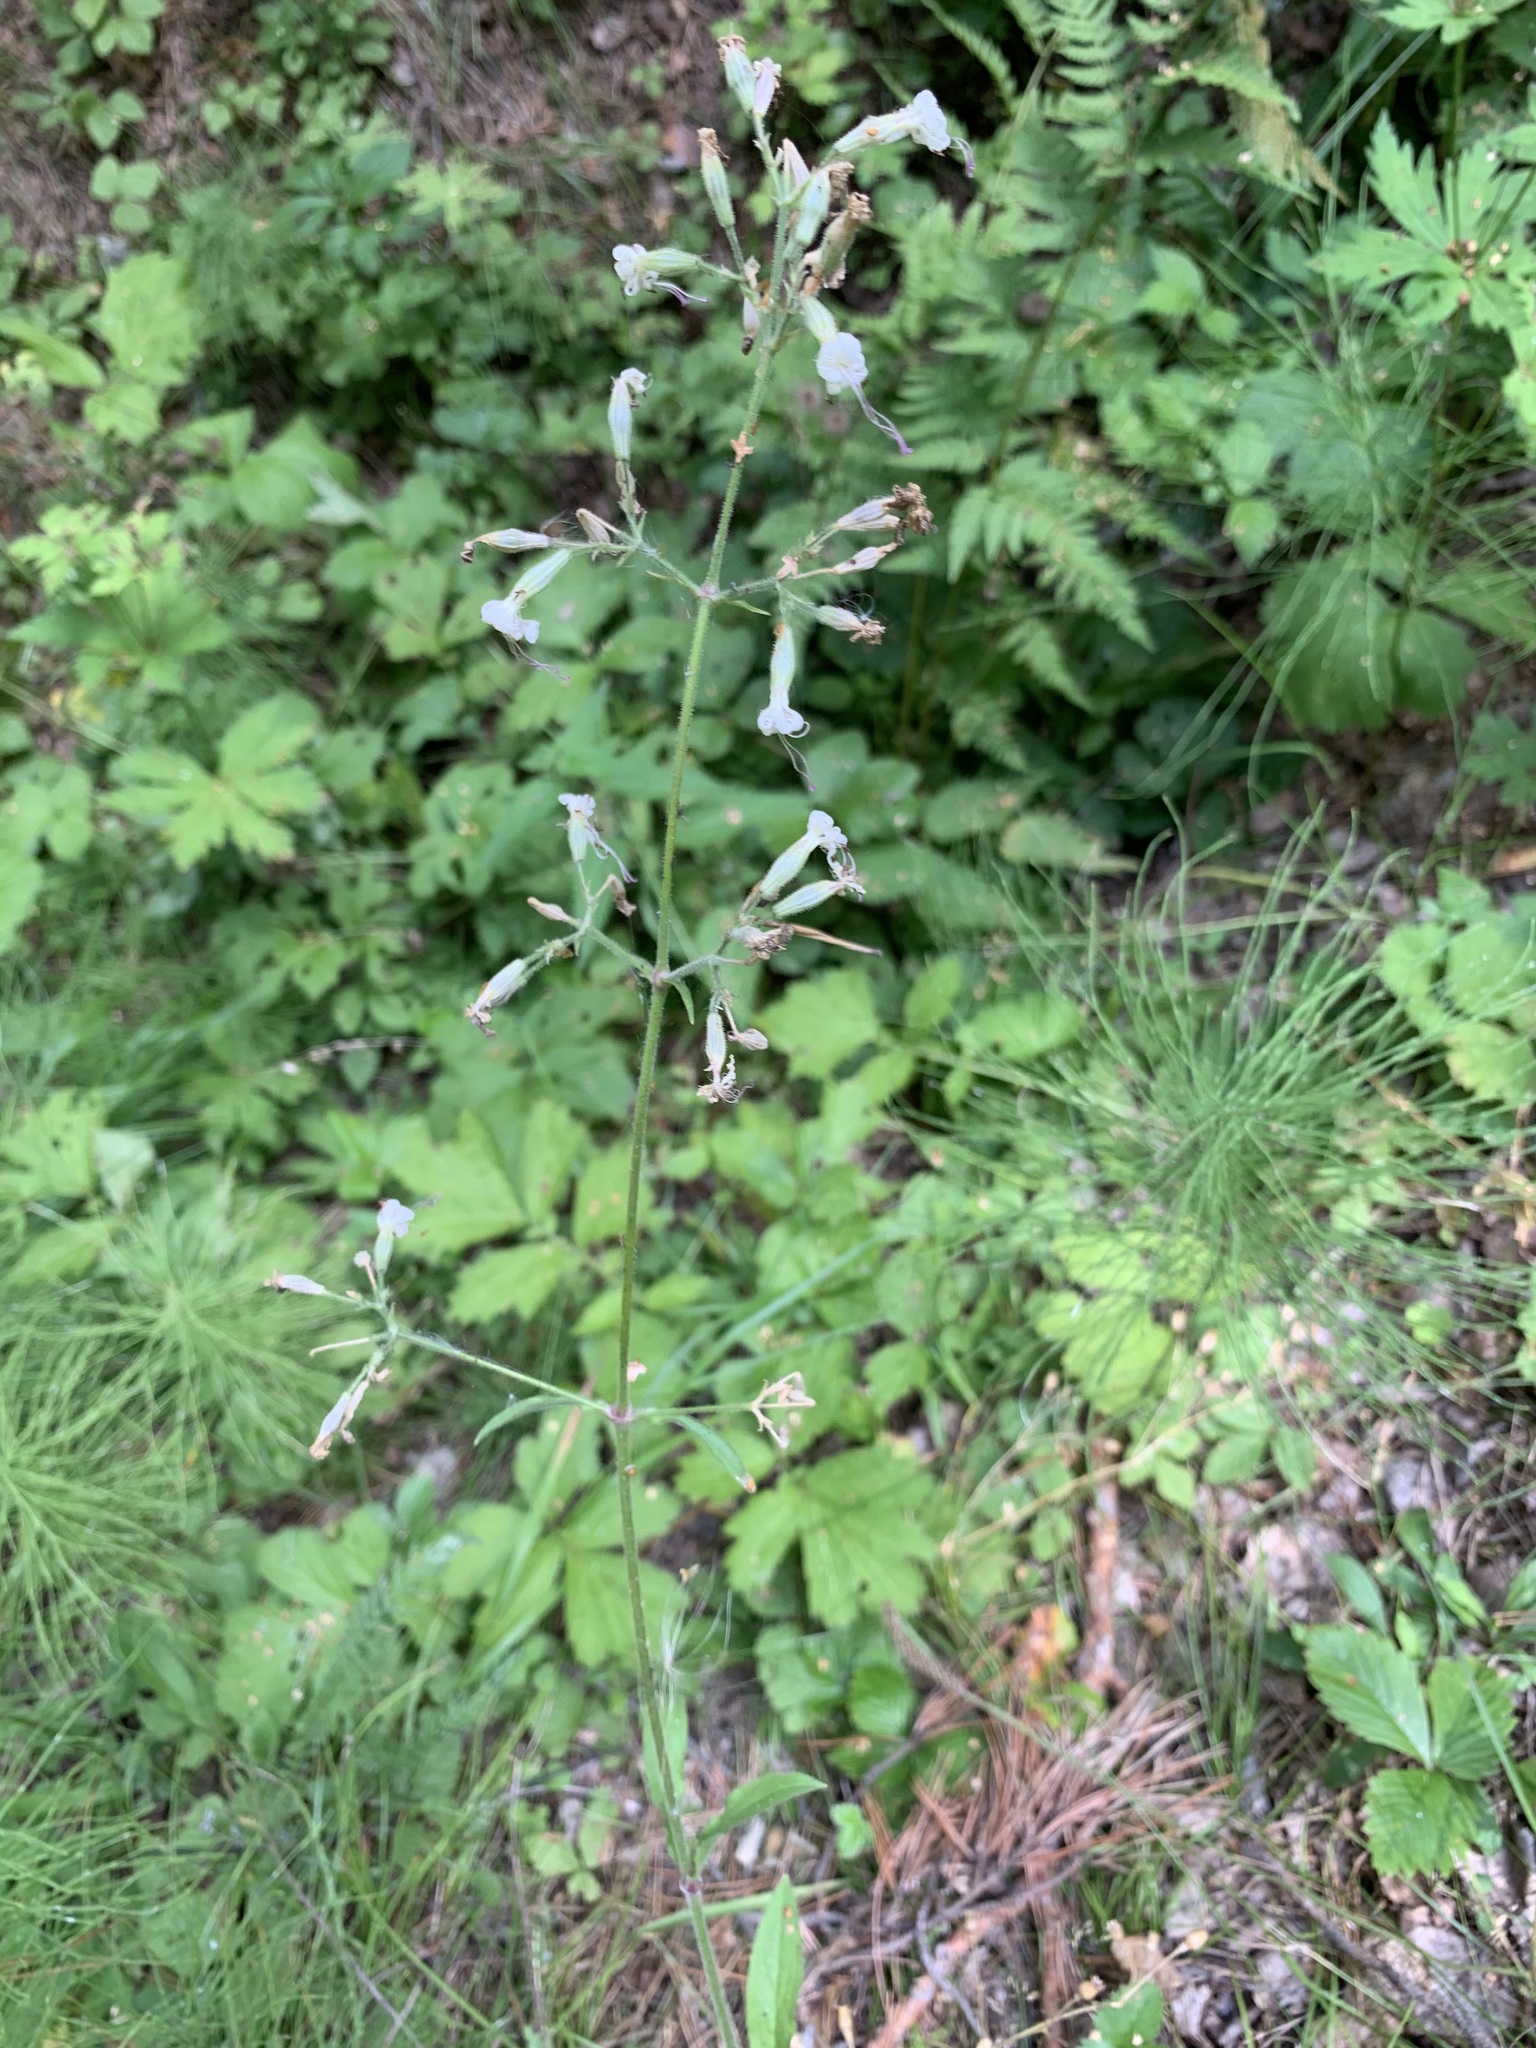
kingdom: Plantae
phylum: Tracheophyta
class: Magnoliopsida
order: Caryophyllales
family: Caryophyllaceae
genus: Silene
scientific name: Silene nutans
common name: Nottingham catchfly
